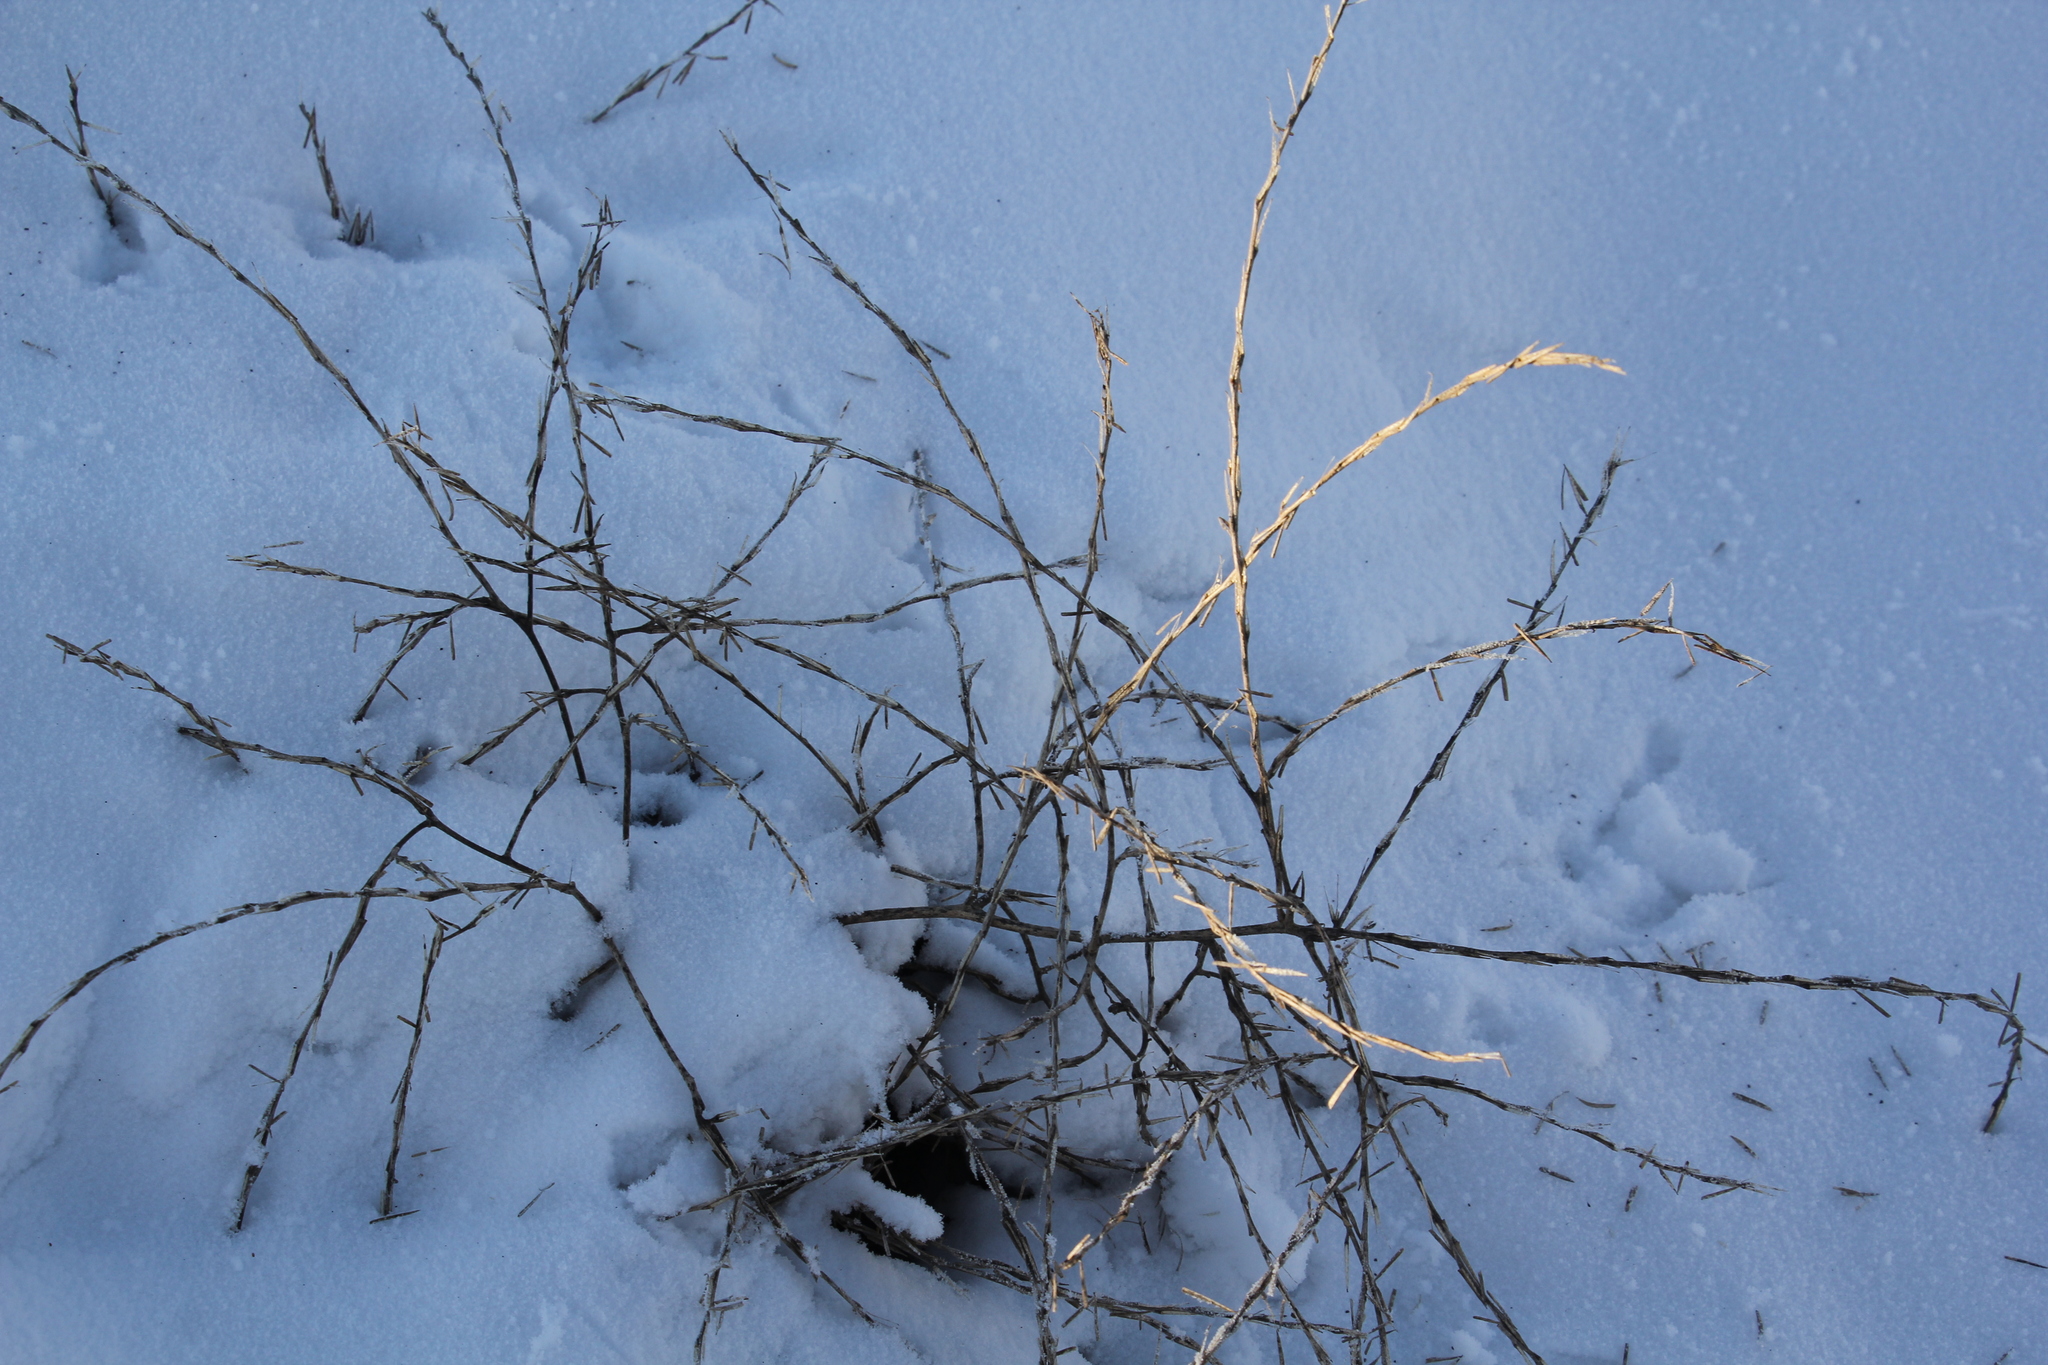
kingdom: Plantae
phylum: Tracheophyta
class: Magnoliopsida
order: Brassicales
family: Brassicaceae
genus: Sisymbrium
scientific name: Sisymbrium officinale
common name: Hedge mustard
